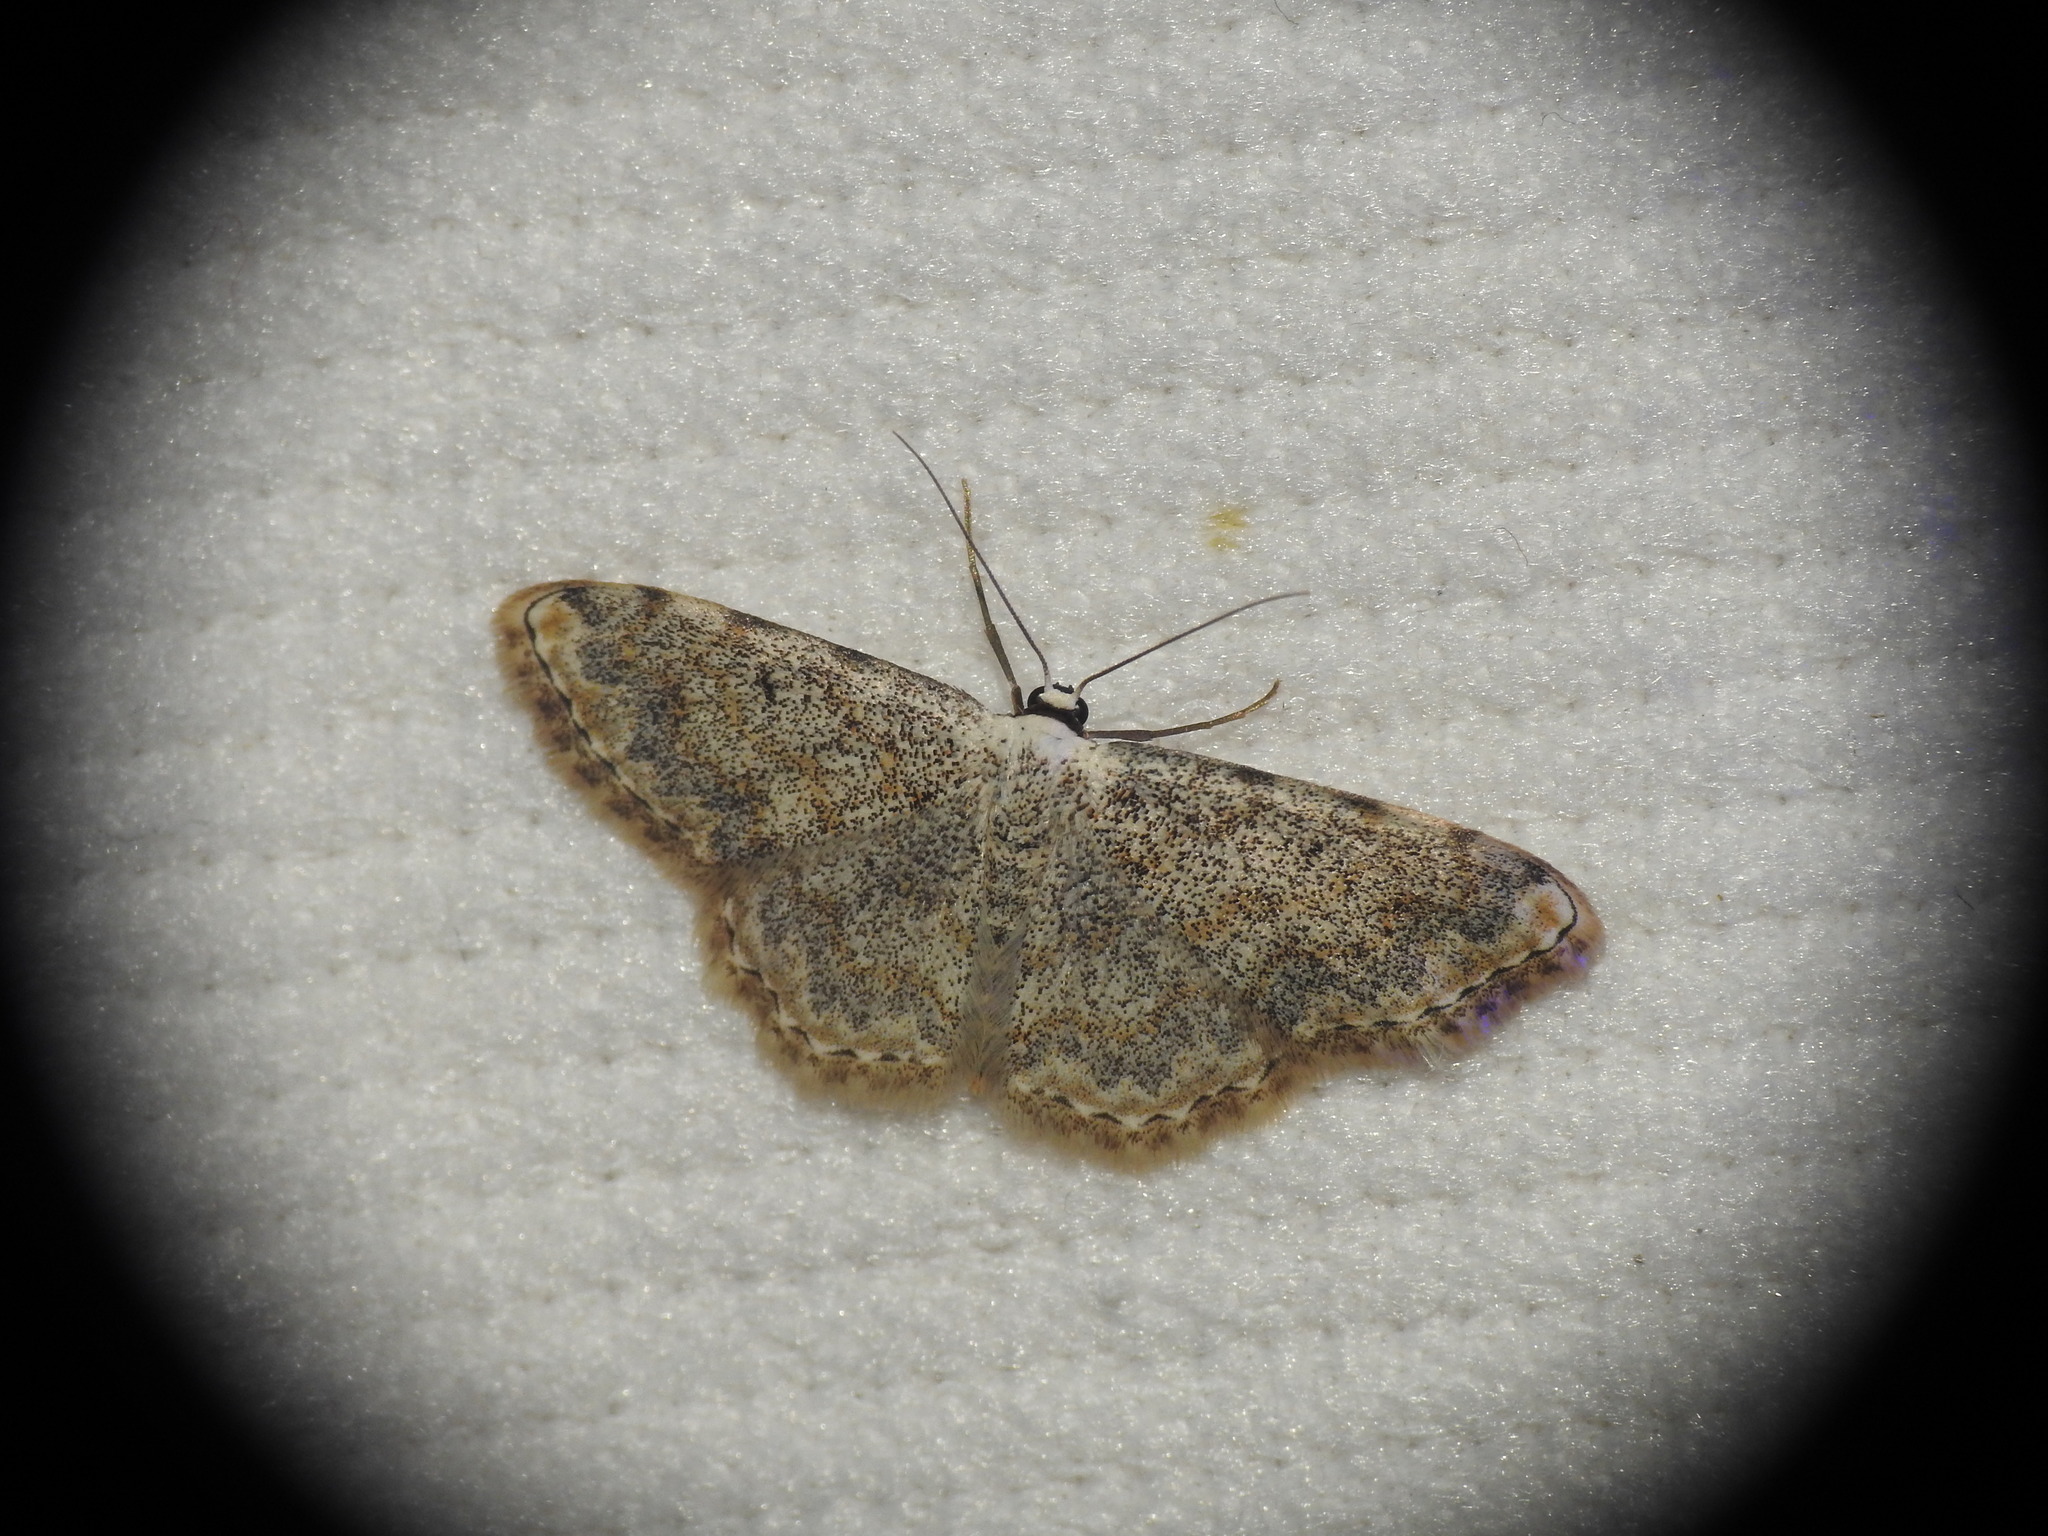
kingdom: Animalia
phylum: Arthropoda
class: Insecta
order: Lepidoptera
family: Geometridae
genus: Scopula
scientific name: Scopula submutata
